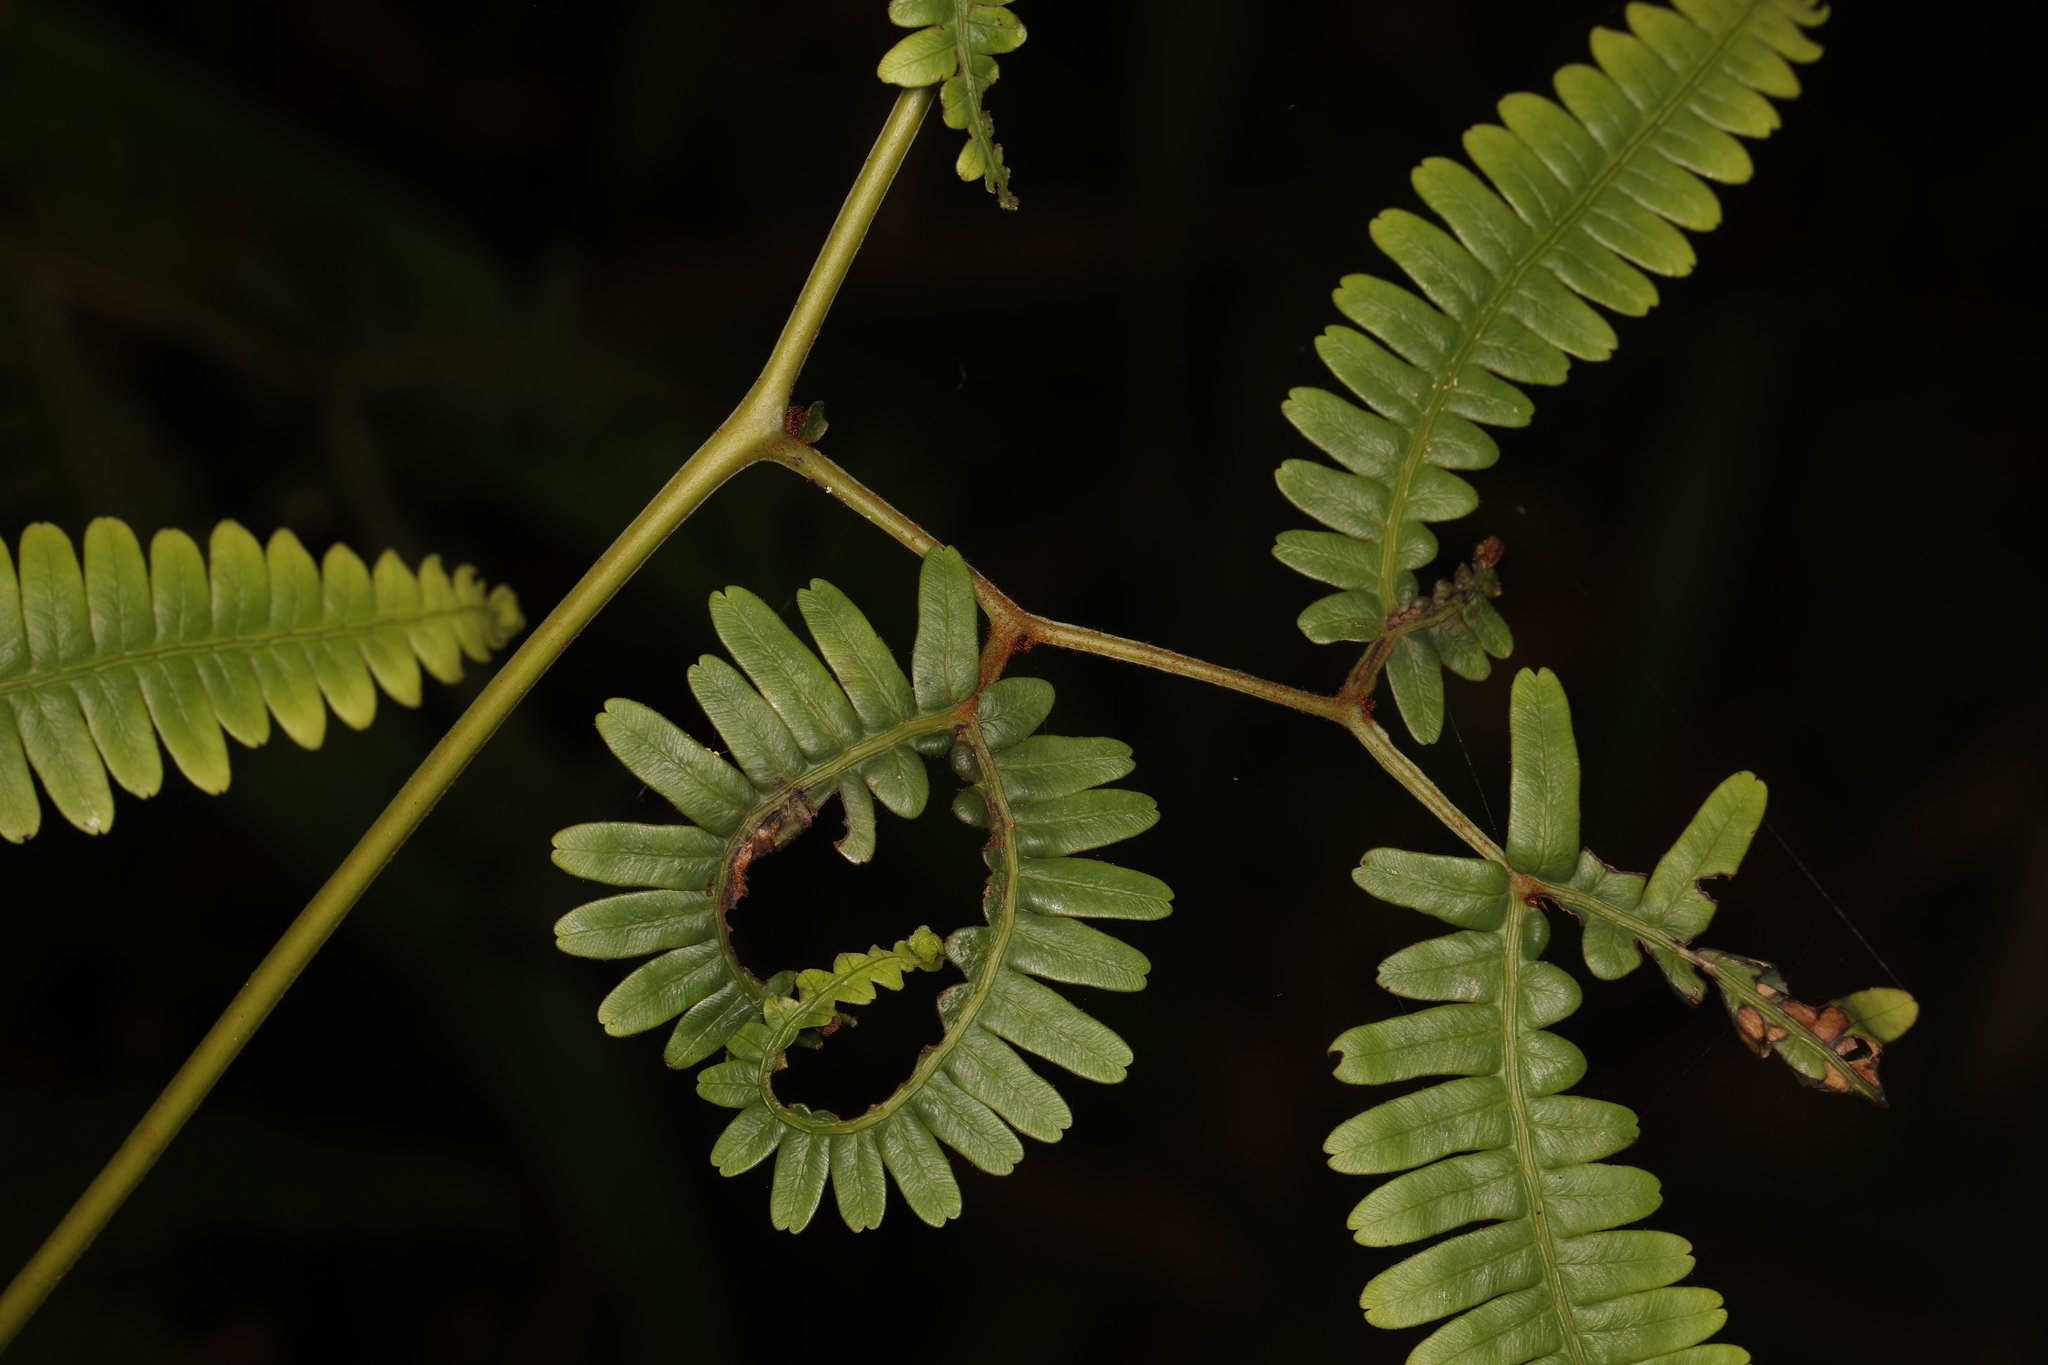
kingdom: Plantae
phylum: Tracheophyta
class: Polypodiopsida
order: Gleicheniales
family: Gleicheniaceae
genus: Gleichenella
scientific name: Gleichenella pectinata
